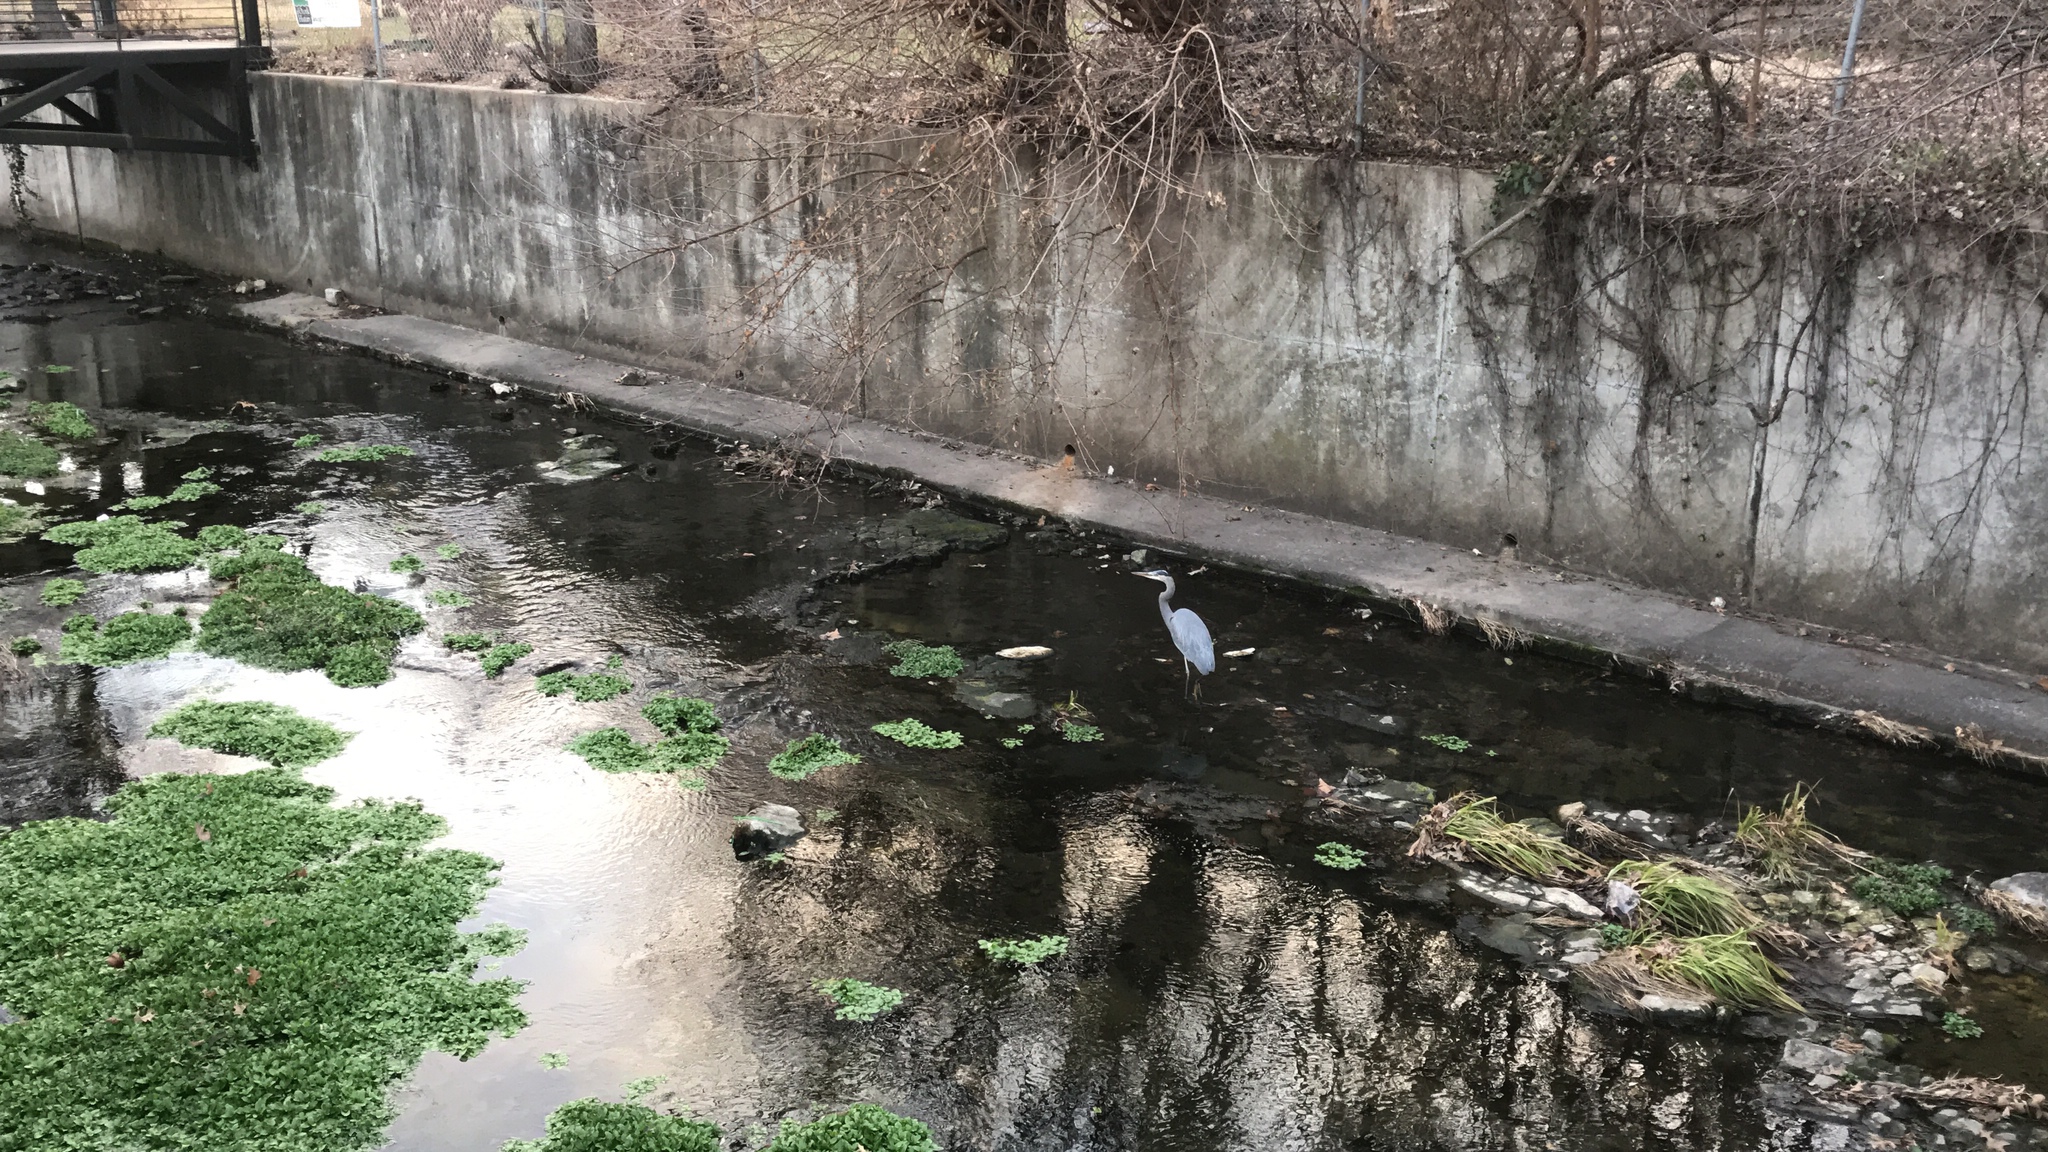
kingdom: Animalia
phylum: Chordata
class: Aves
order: Pelecaniformes
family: Ardeidae
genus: Ardea
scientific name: Ardea herodias
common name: Great blue heron
